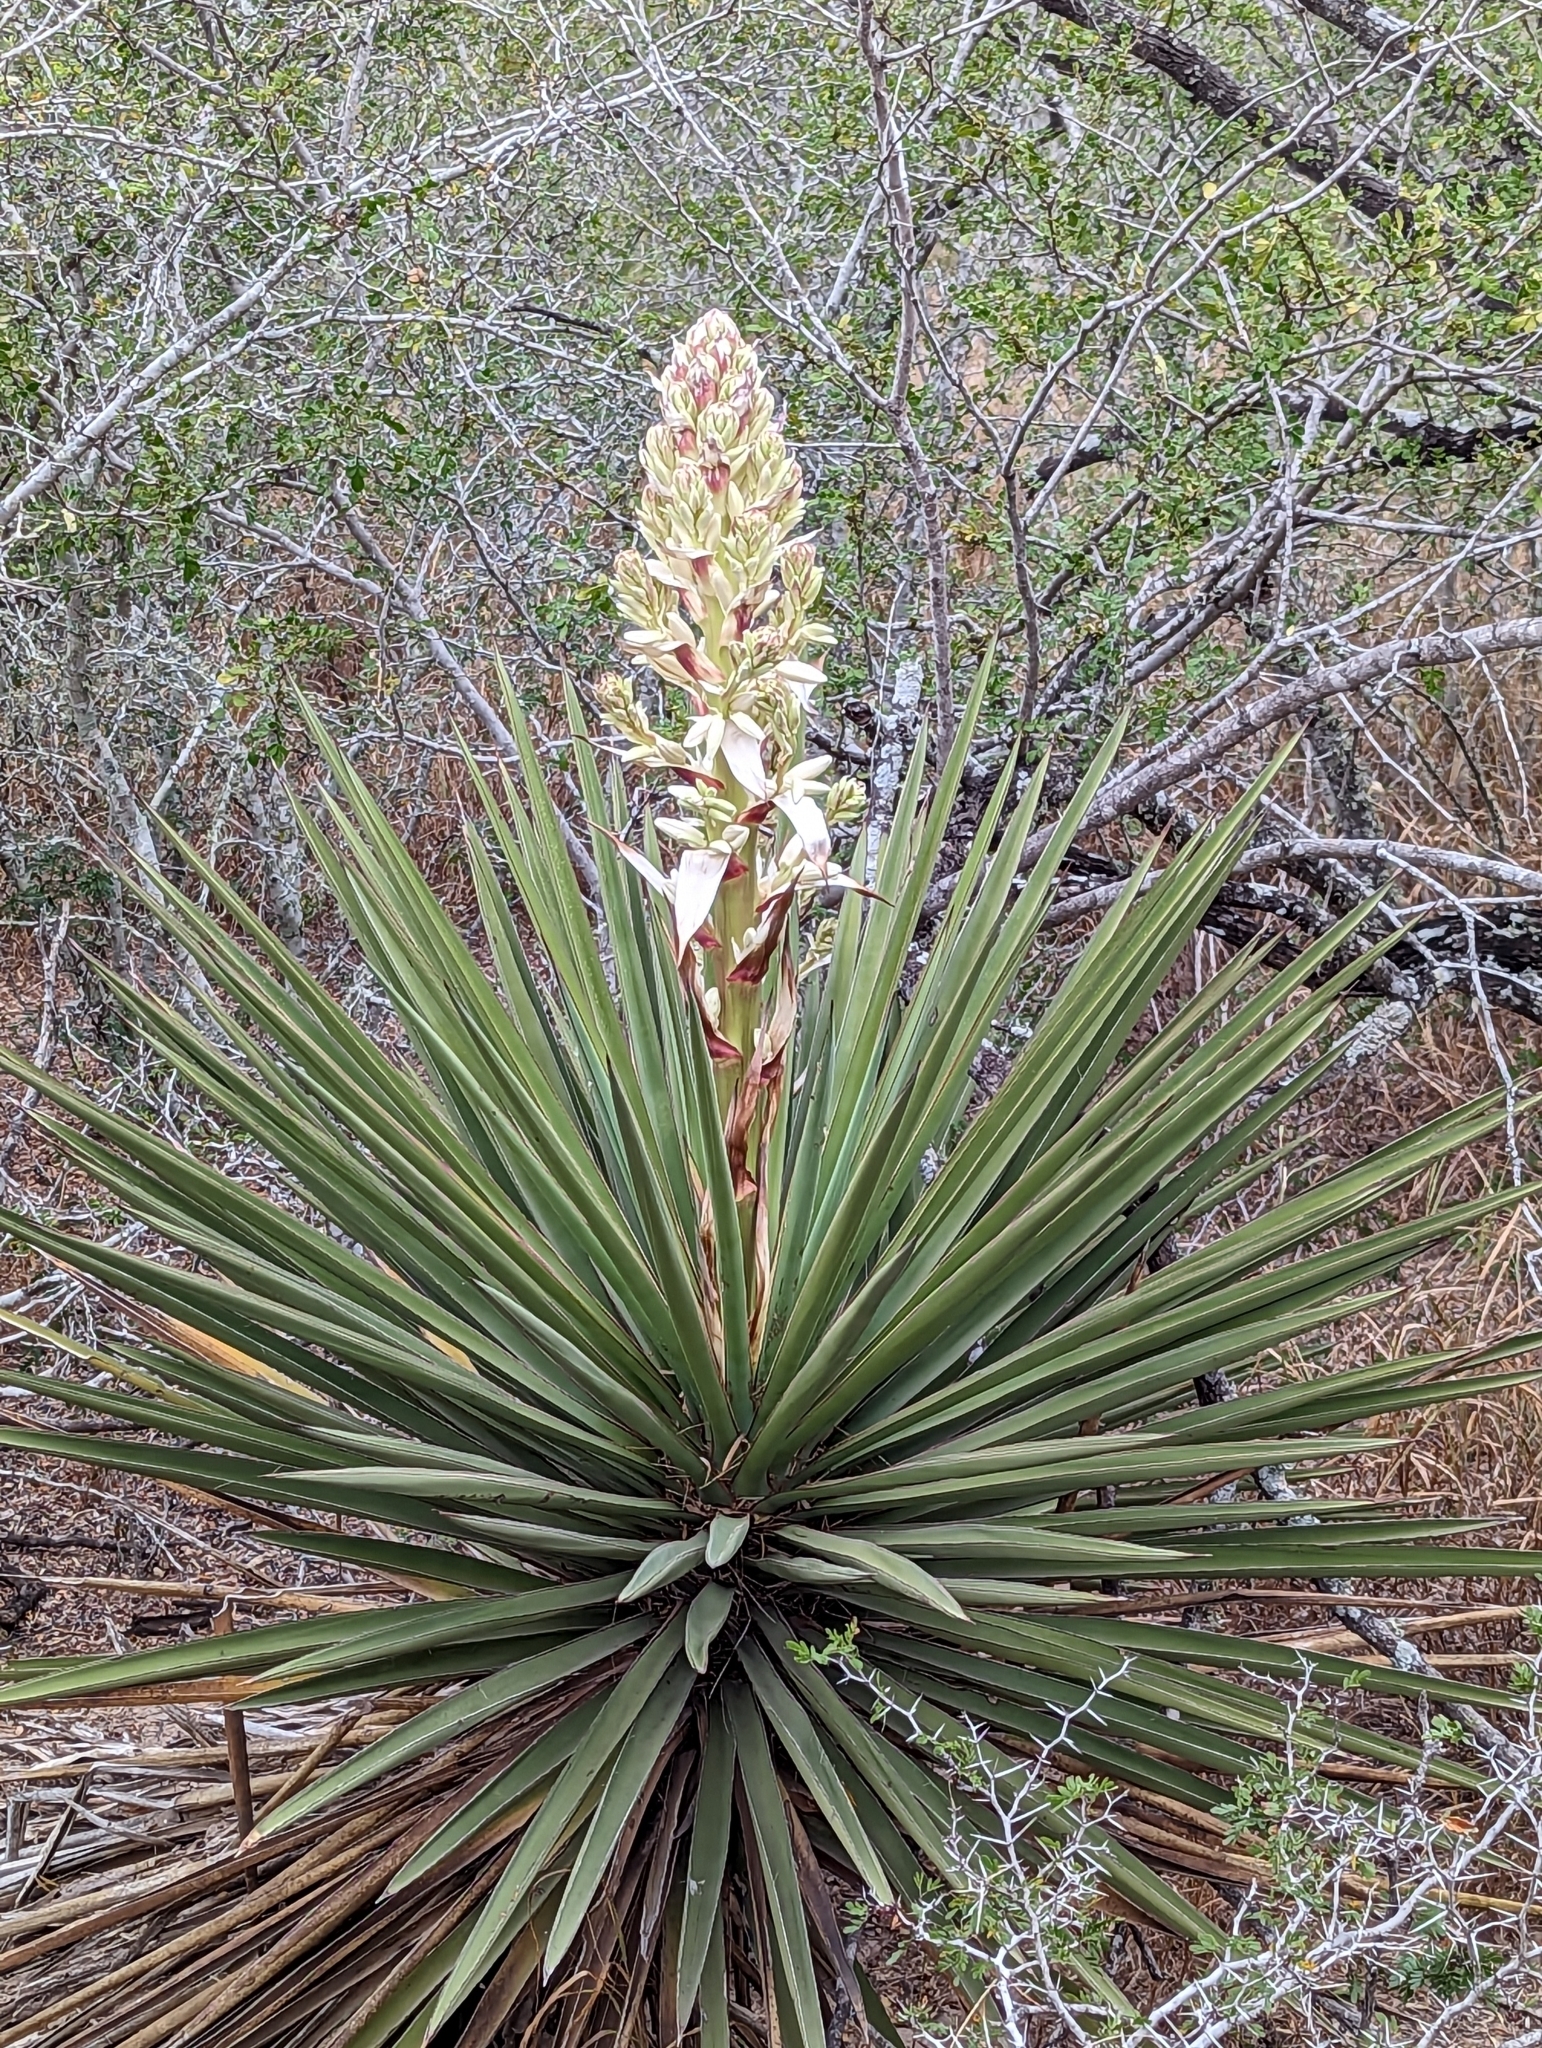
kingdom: Plantae
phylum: Tracheophyta
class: Liliopsida
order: Asparagales
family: Asparagaceae
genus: Yucca
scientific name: Yucca treculiana
